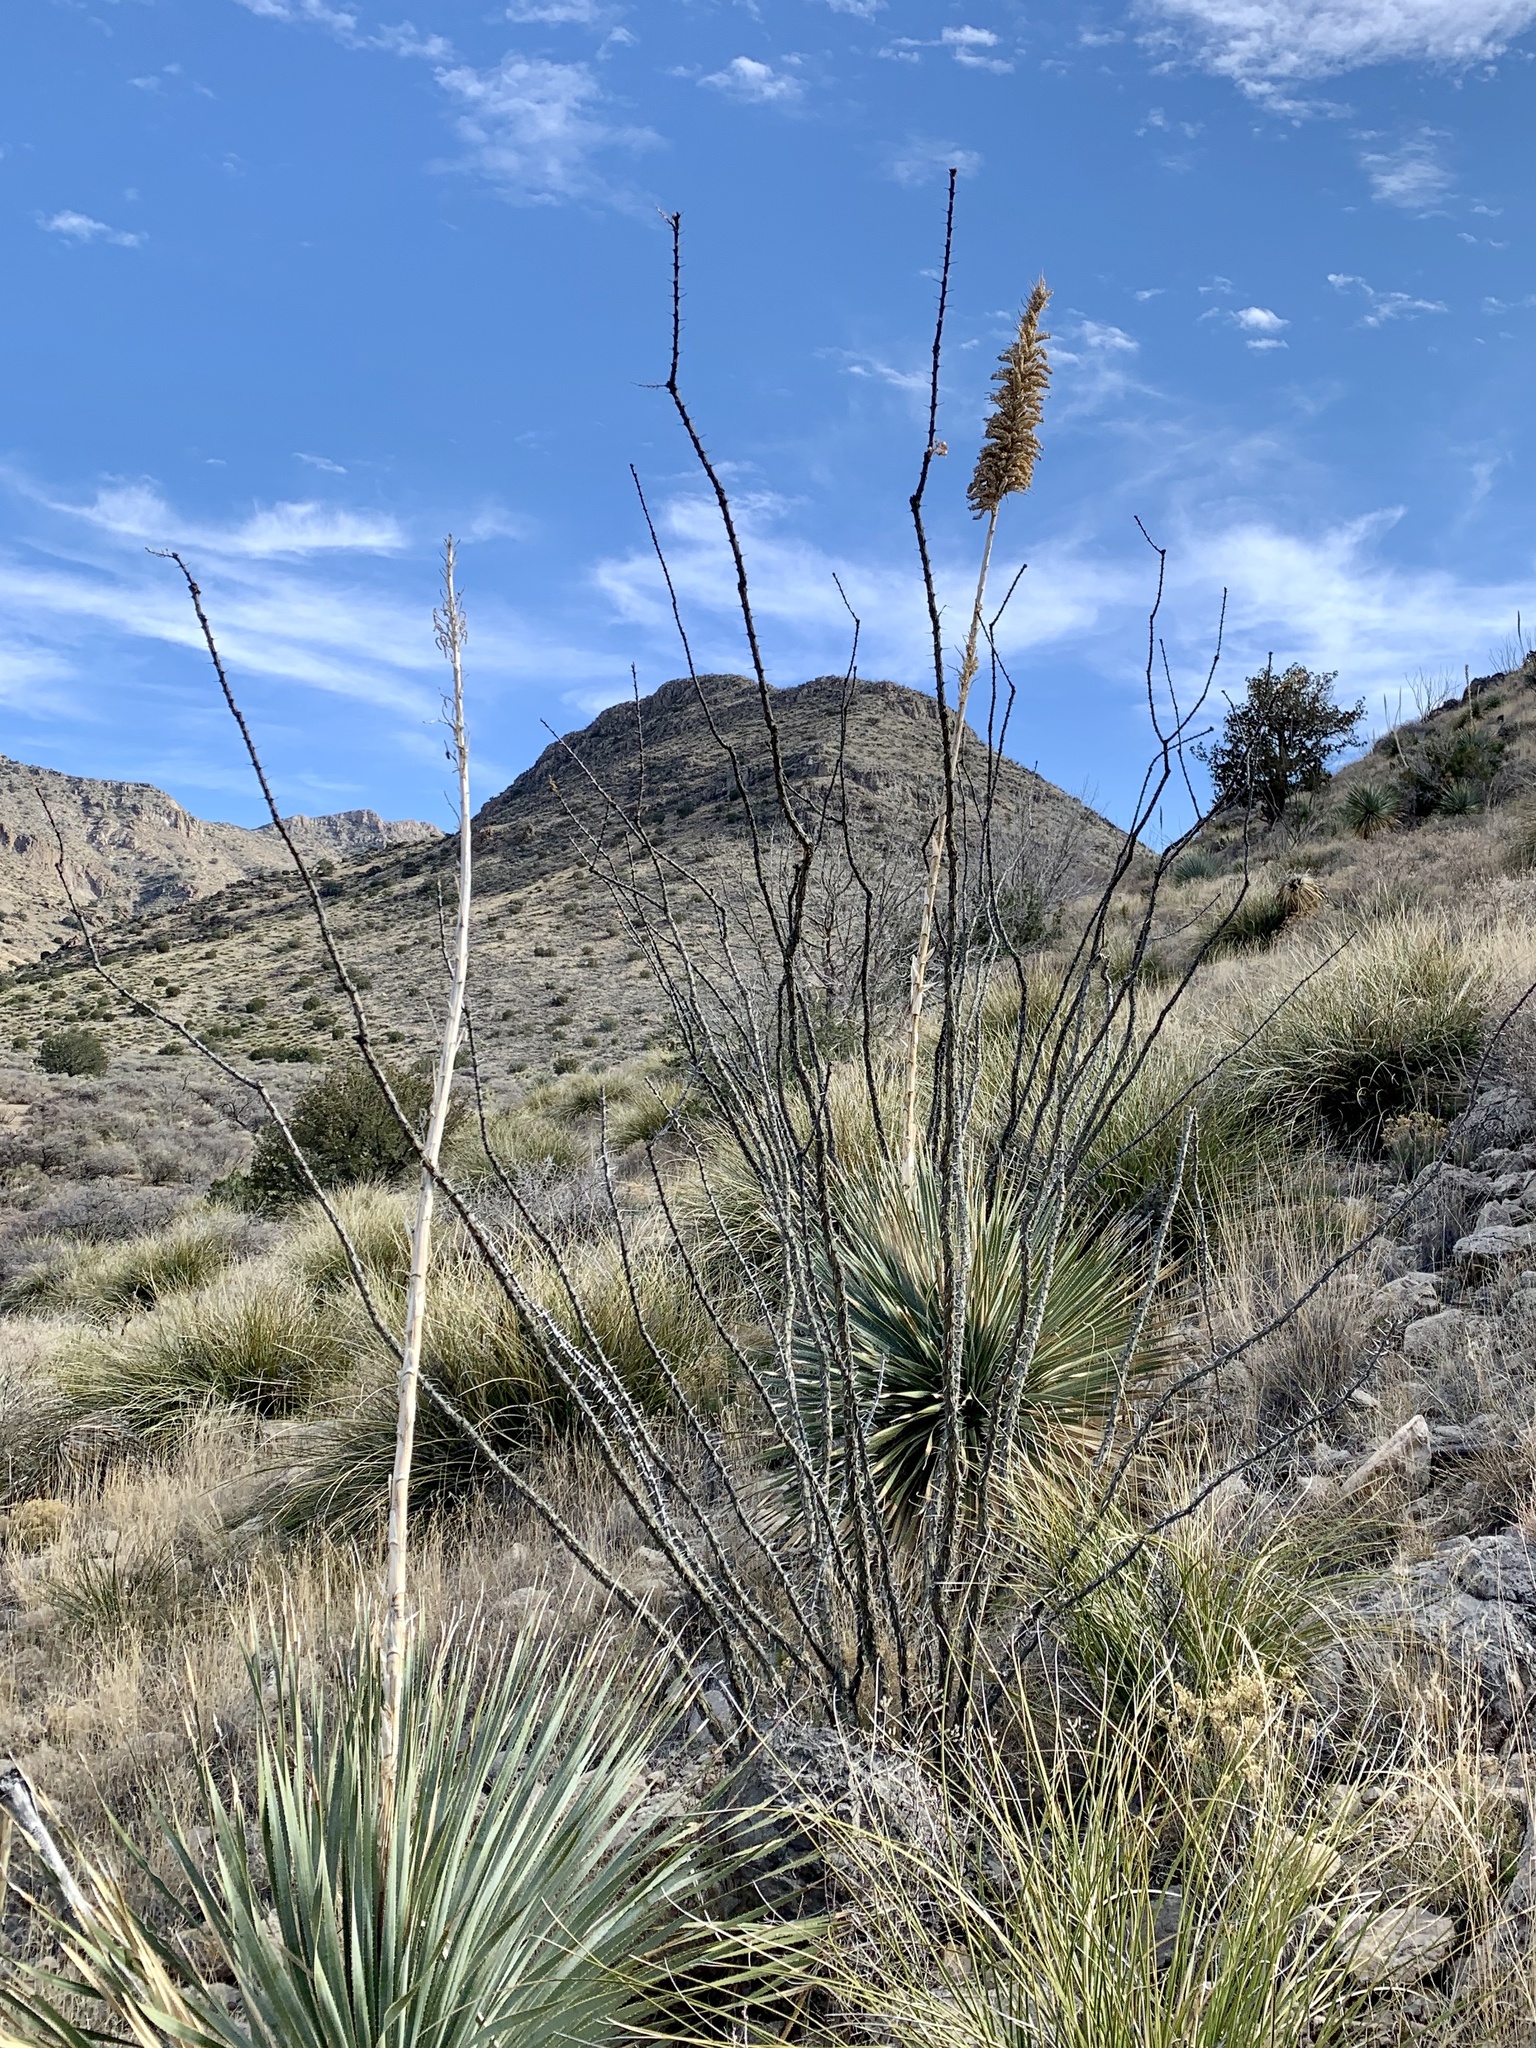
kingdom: Plantae
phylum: Tracheophyta
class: Magnoliopsida
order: Ericales
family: Fouquieriaceae
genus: Fouquieria
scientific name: Fouquieria splendens
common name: Vine-cactus
